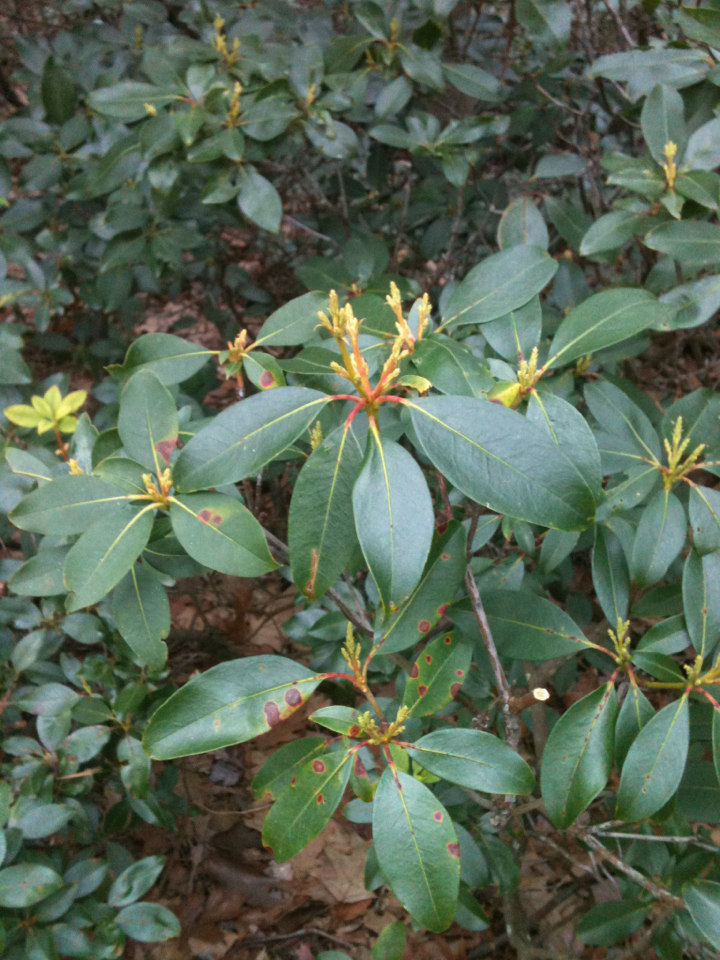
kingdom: Plantae
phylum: Tracheophyta
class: Magnoliopsida
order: Ericales
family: Ericaceae
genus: Kalmia
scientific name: Kalmia latifolia
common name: Mountain-laurel
